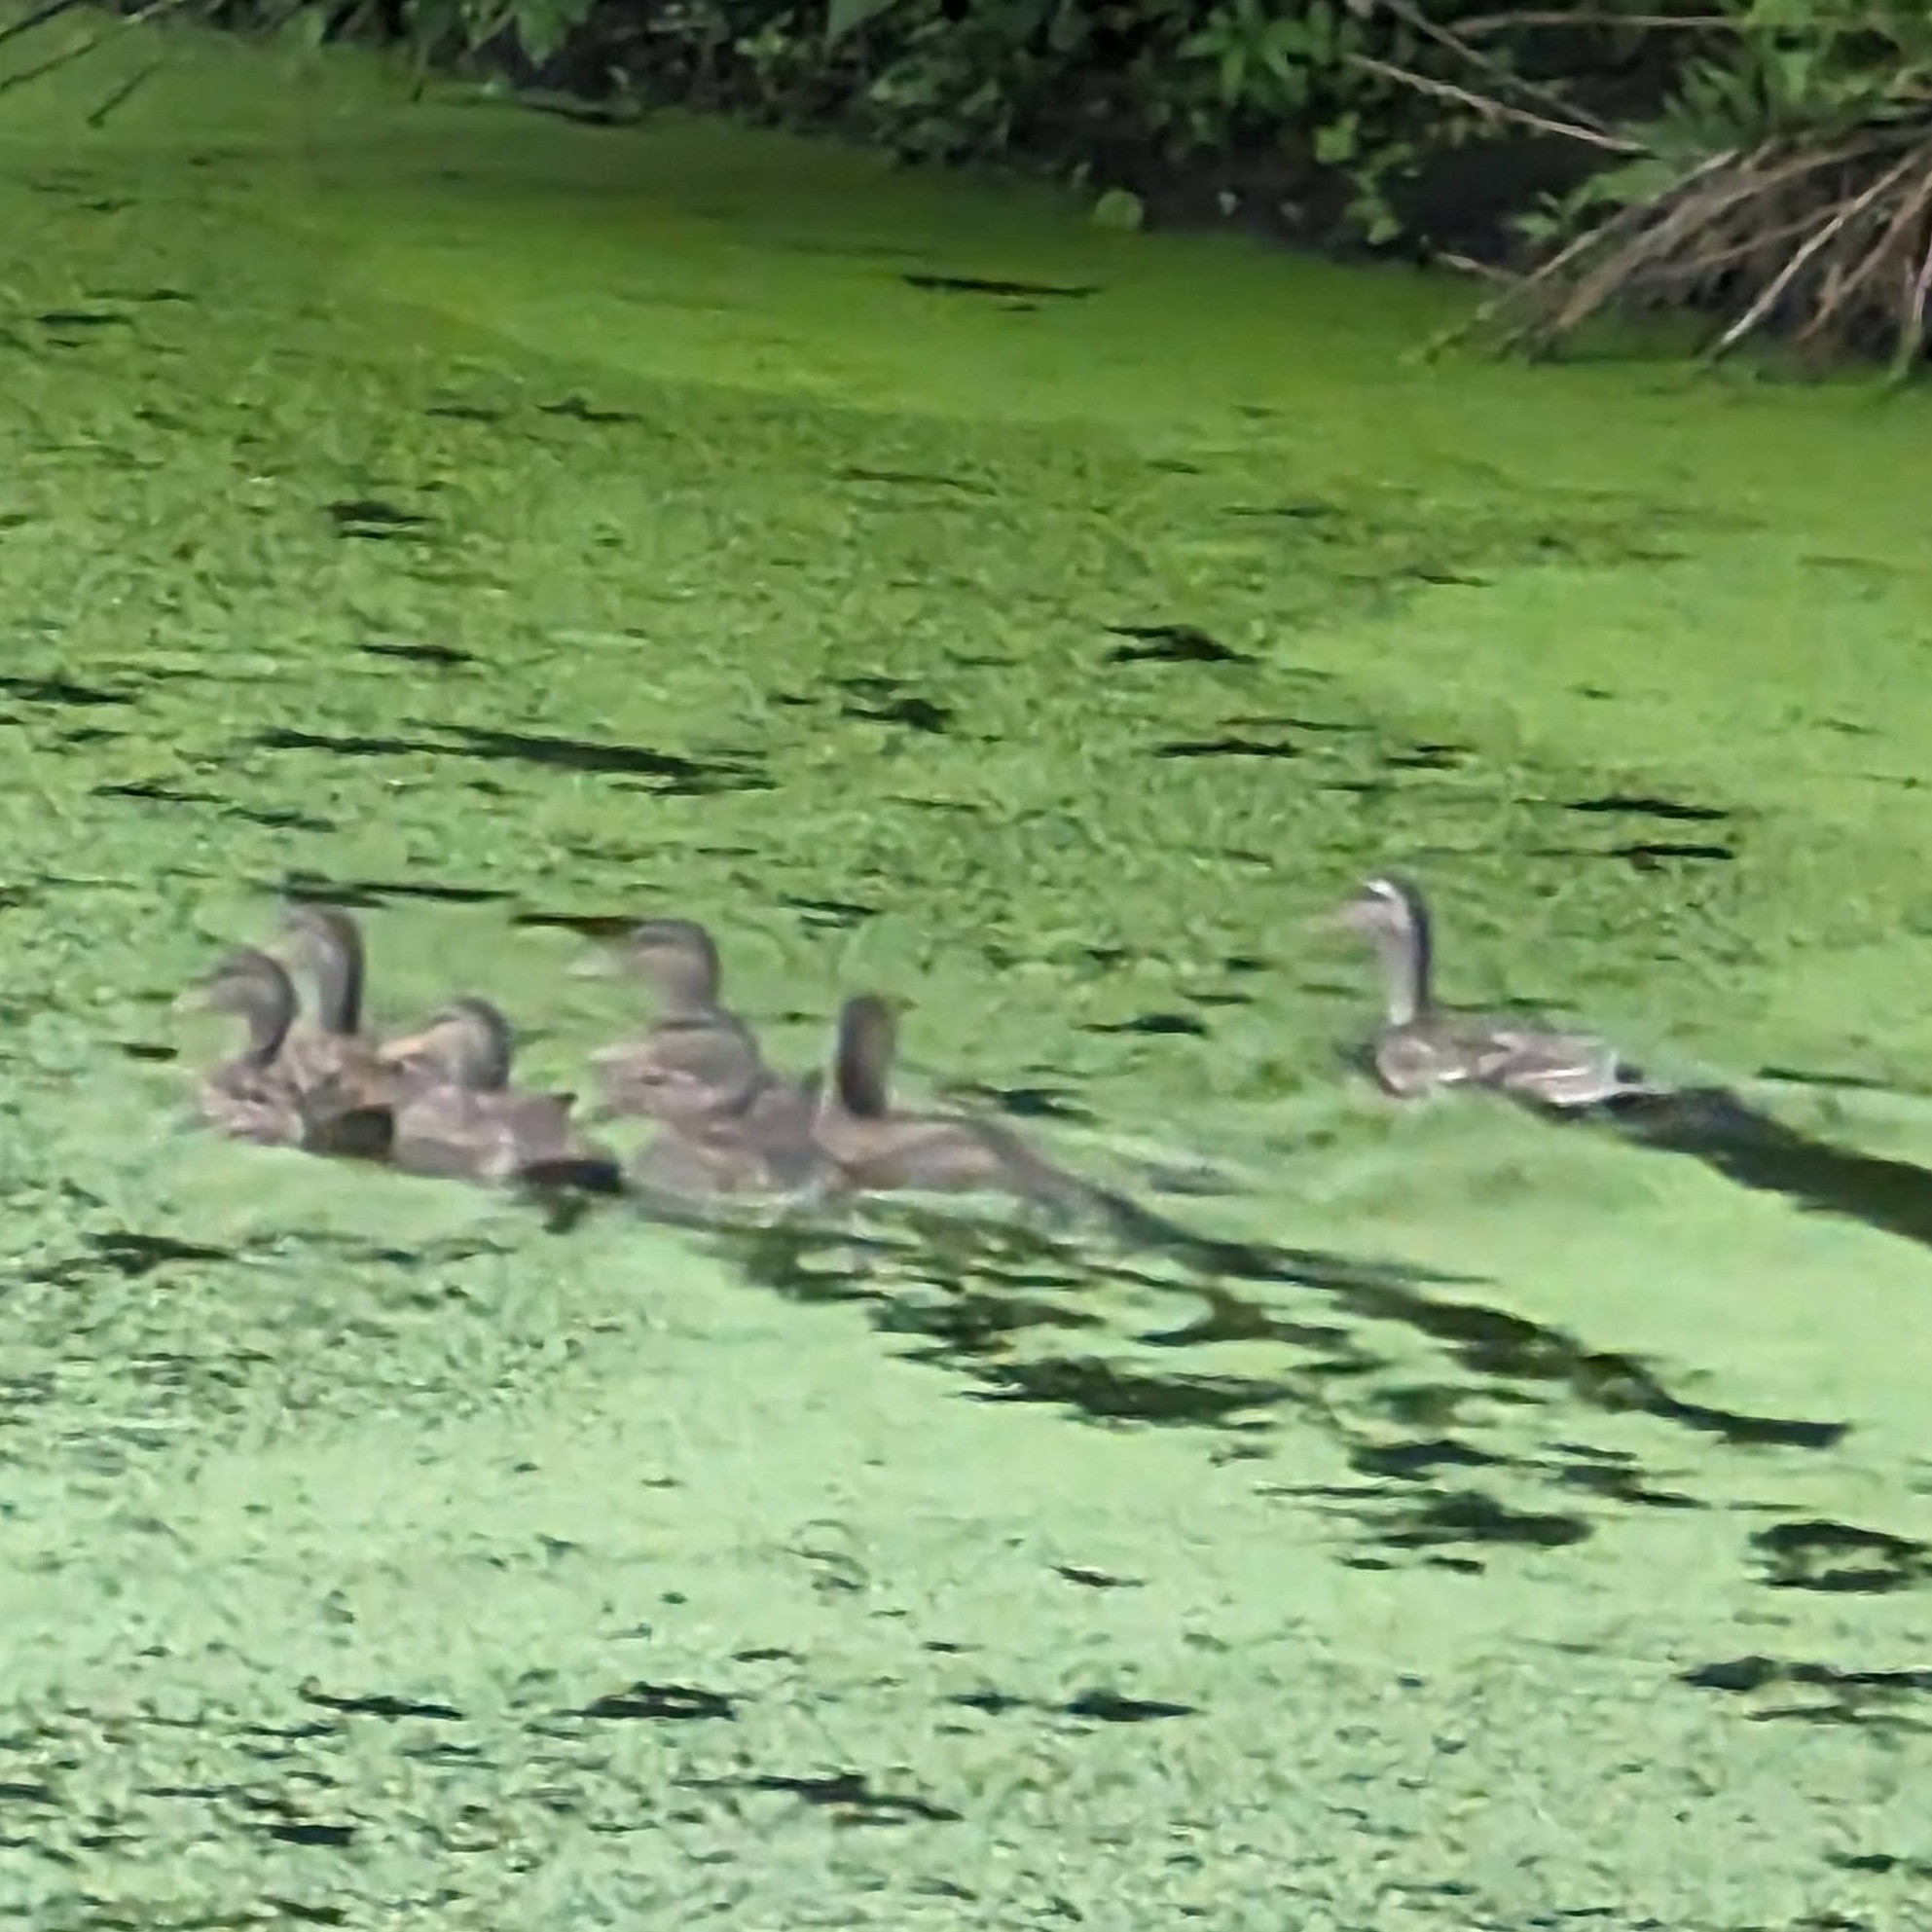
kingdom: Animalia
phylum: Chordata
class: Aves
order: Anseriformes
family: Anatidae
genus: Anas
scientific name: Anas platyrhynchos
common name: Mallard
